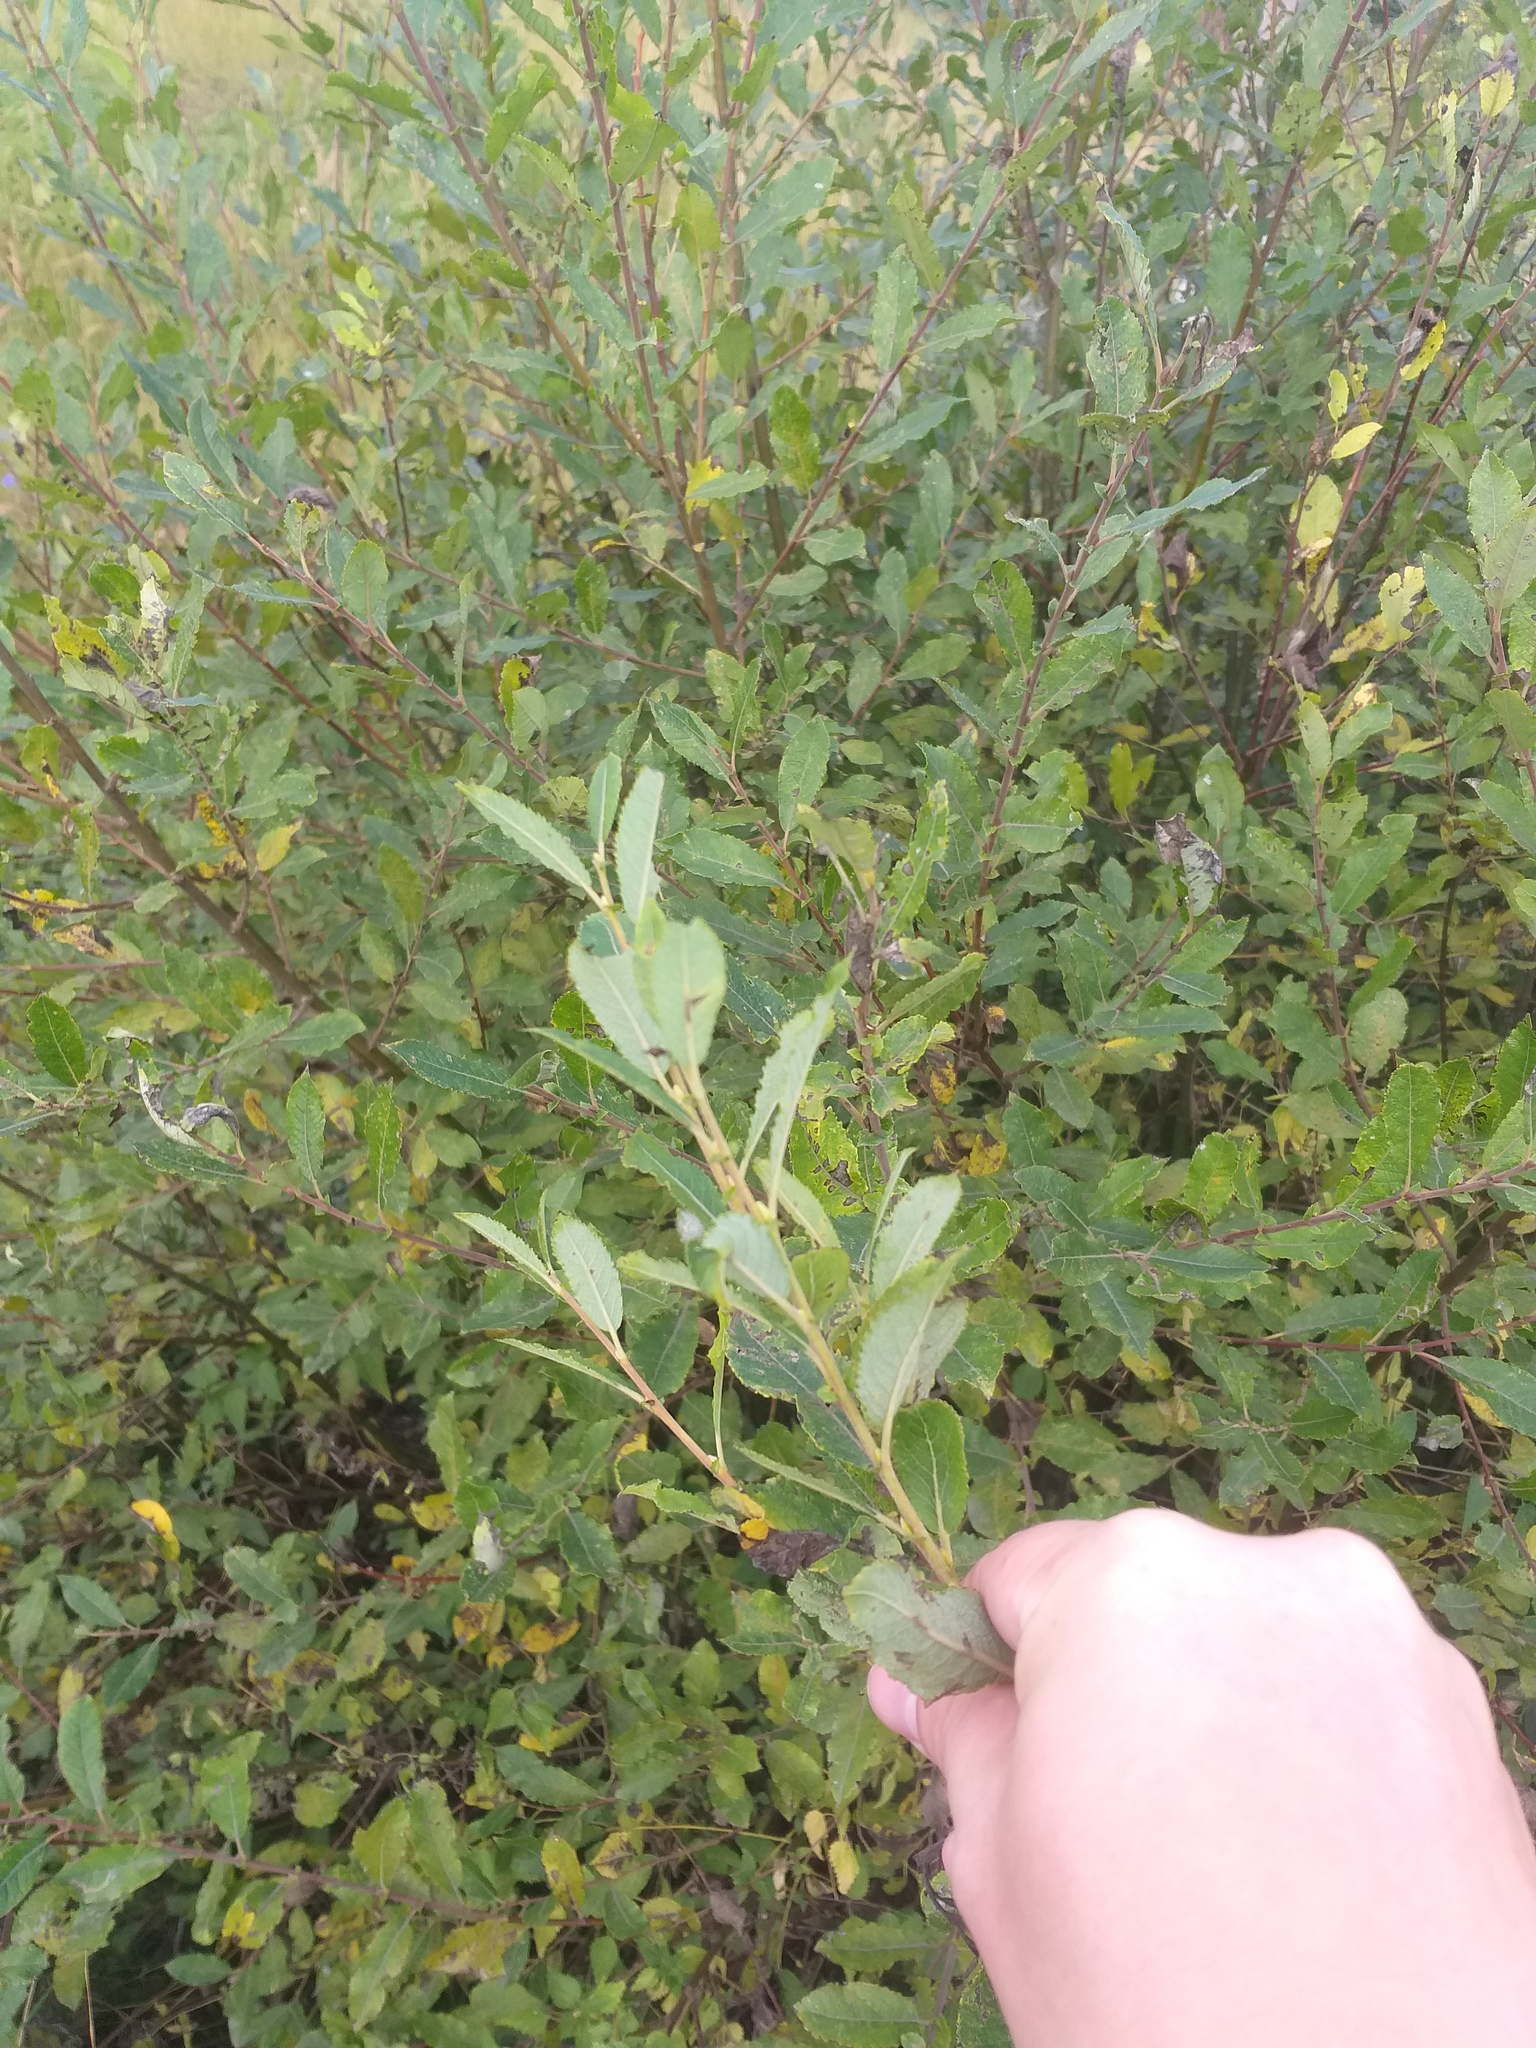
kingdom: Plantae
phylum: Tracheophyta
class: Magnoliopsida
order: Malpighiales
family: Salicaceae
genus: Salix
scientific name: Salix myrsinifolia
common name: Dark-leaved willow
